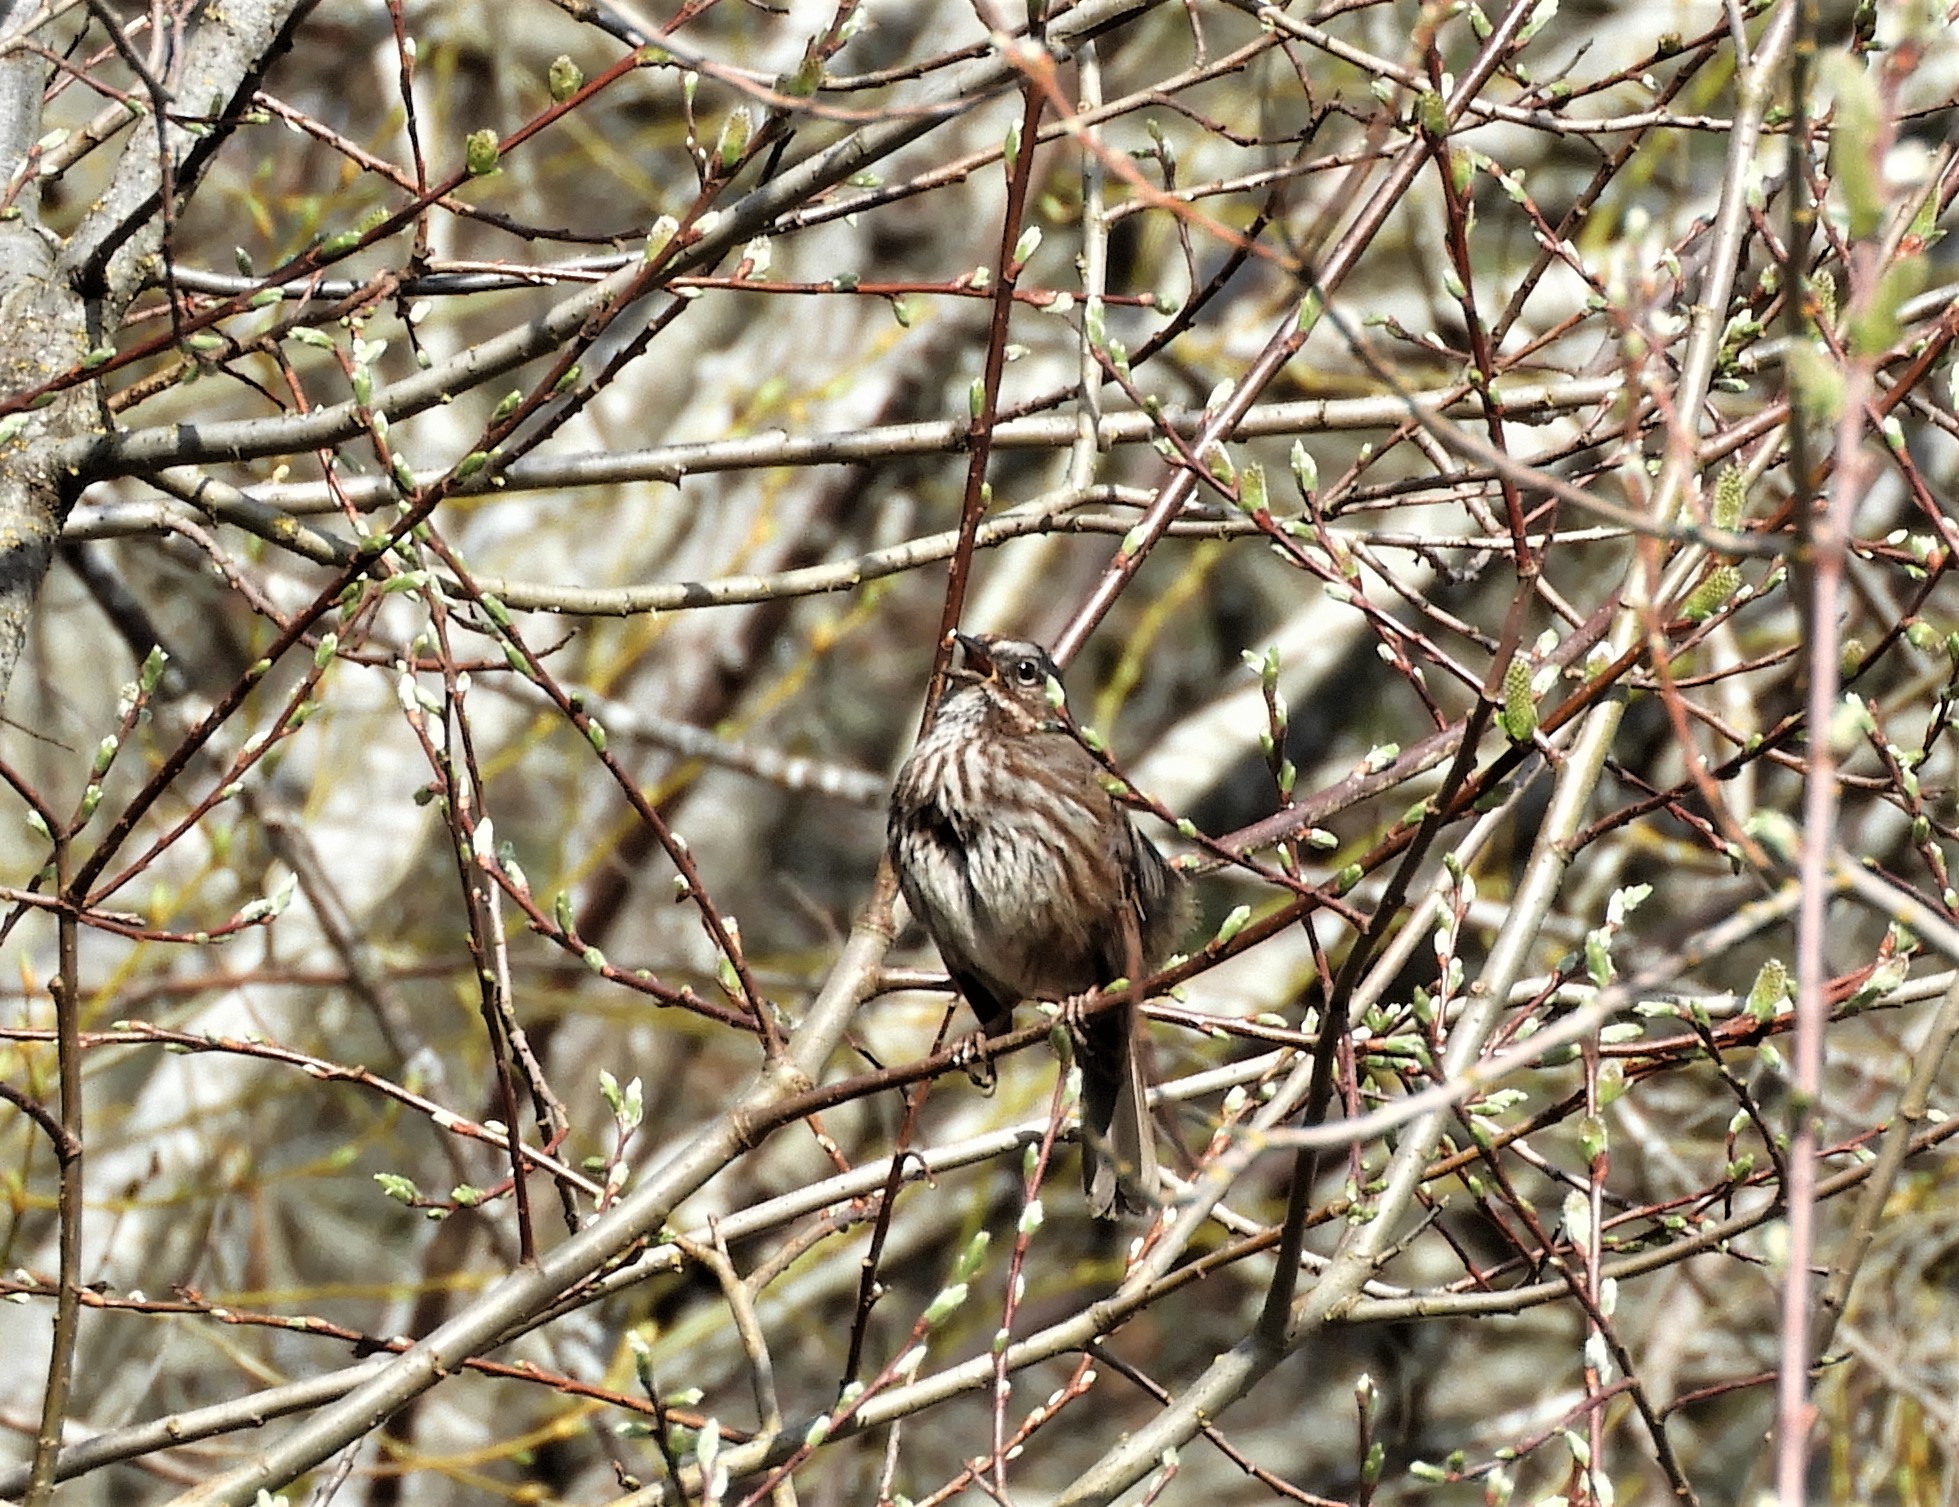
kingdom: Animalia
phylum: Chordata
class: Aves
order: Passeriformes
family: Passerellidae
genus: Melospiza
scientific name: Melospiza melodia
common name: Song sparrow
